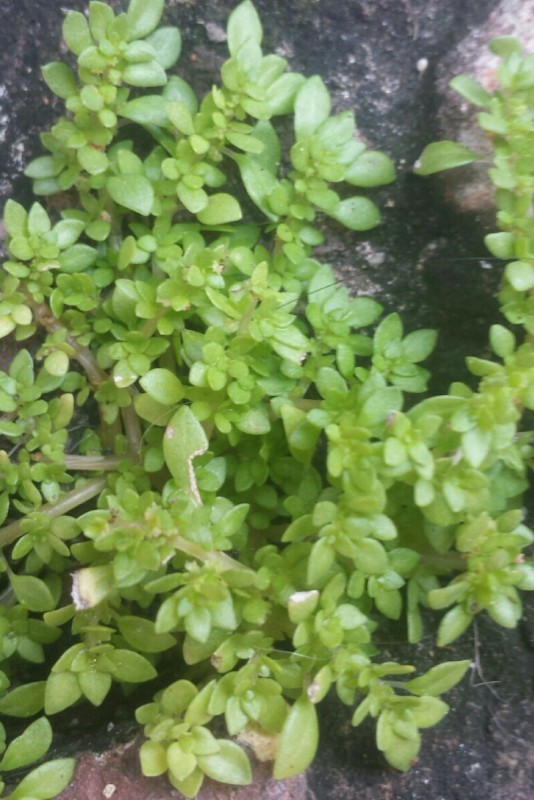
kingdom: Plantae
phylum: Tracheophyta
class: Magnoliopsida
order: Rosales
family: Urticaceae
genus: Pilea
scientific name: Pilea microphylla
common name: Artillery-plant
